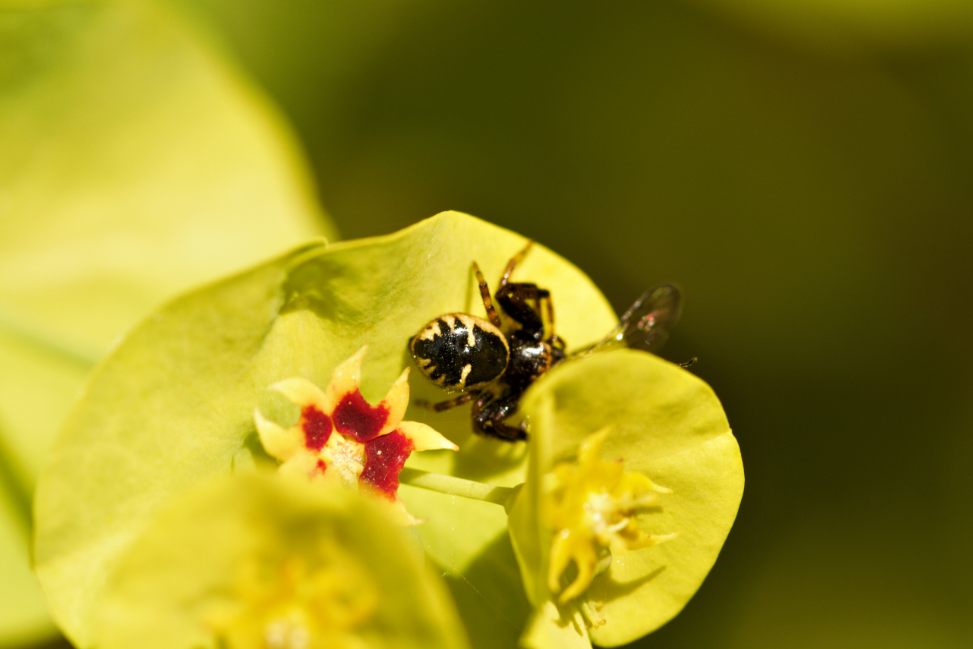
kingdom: Animalia
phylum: Arthropoda
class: Arachnida
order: Araneae
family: Thomisidae
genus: Synema
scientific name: Synema globosum
